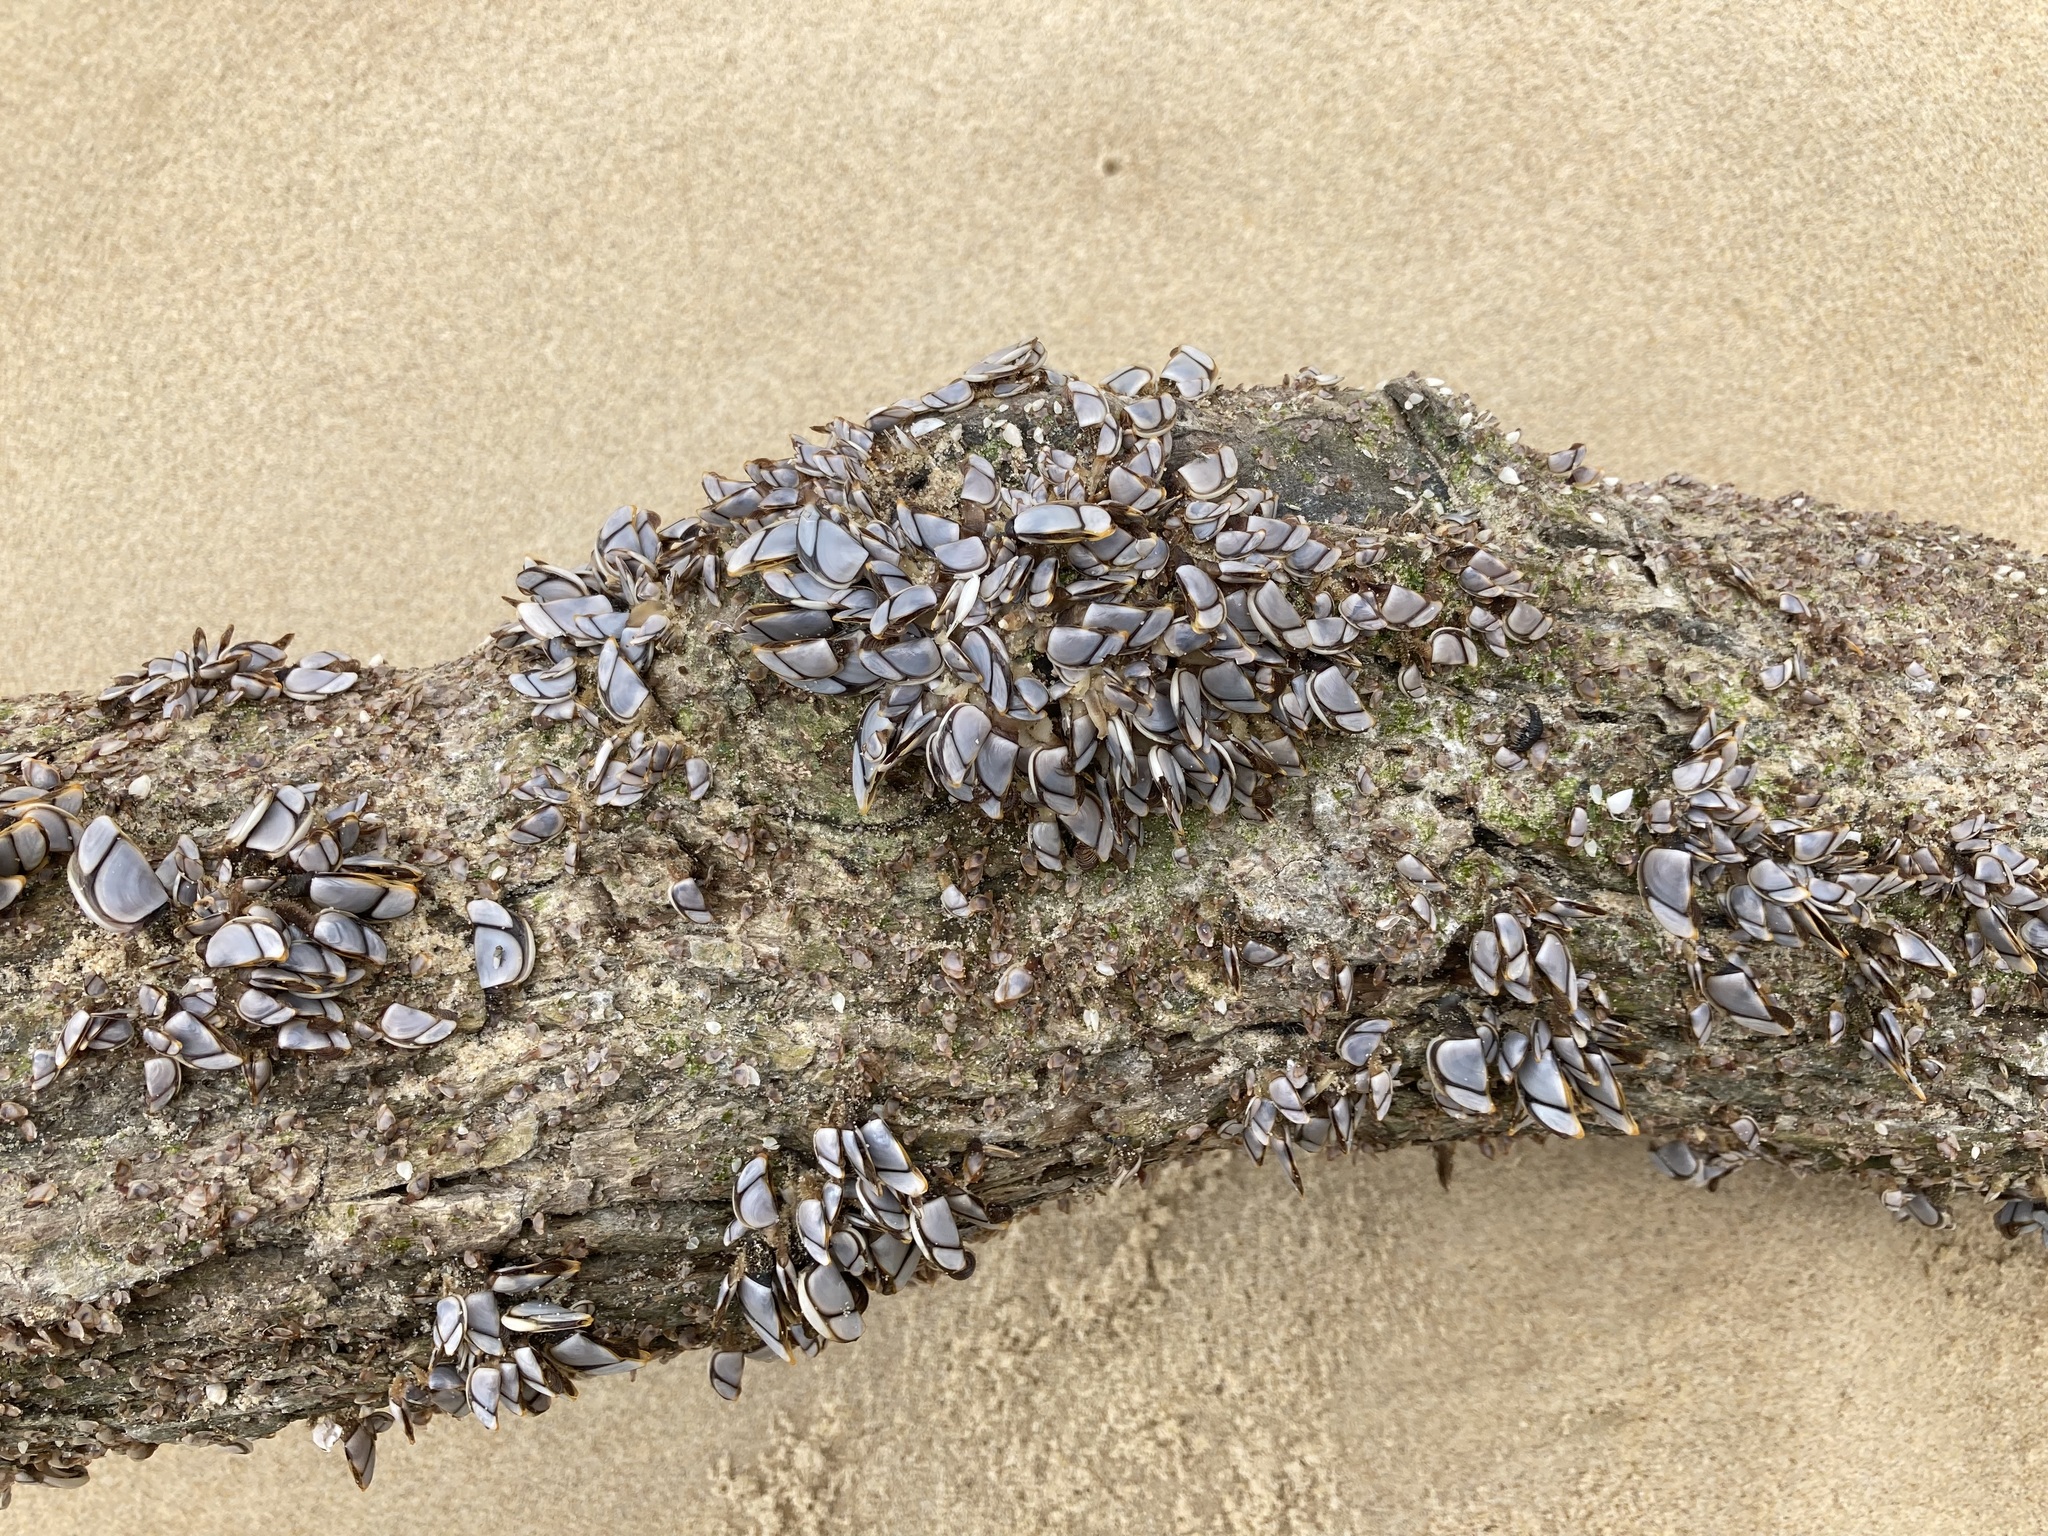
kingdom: Animalia
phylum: Arthropoda
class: Maxillopoda
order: Pedunculata
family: Lepadidae
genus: Lepas
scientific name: Lepas anatifera
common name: Common goose barnacle
